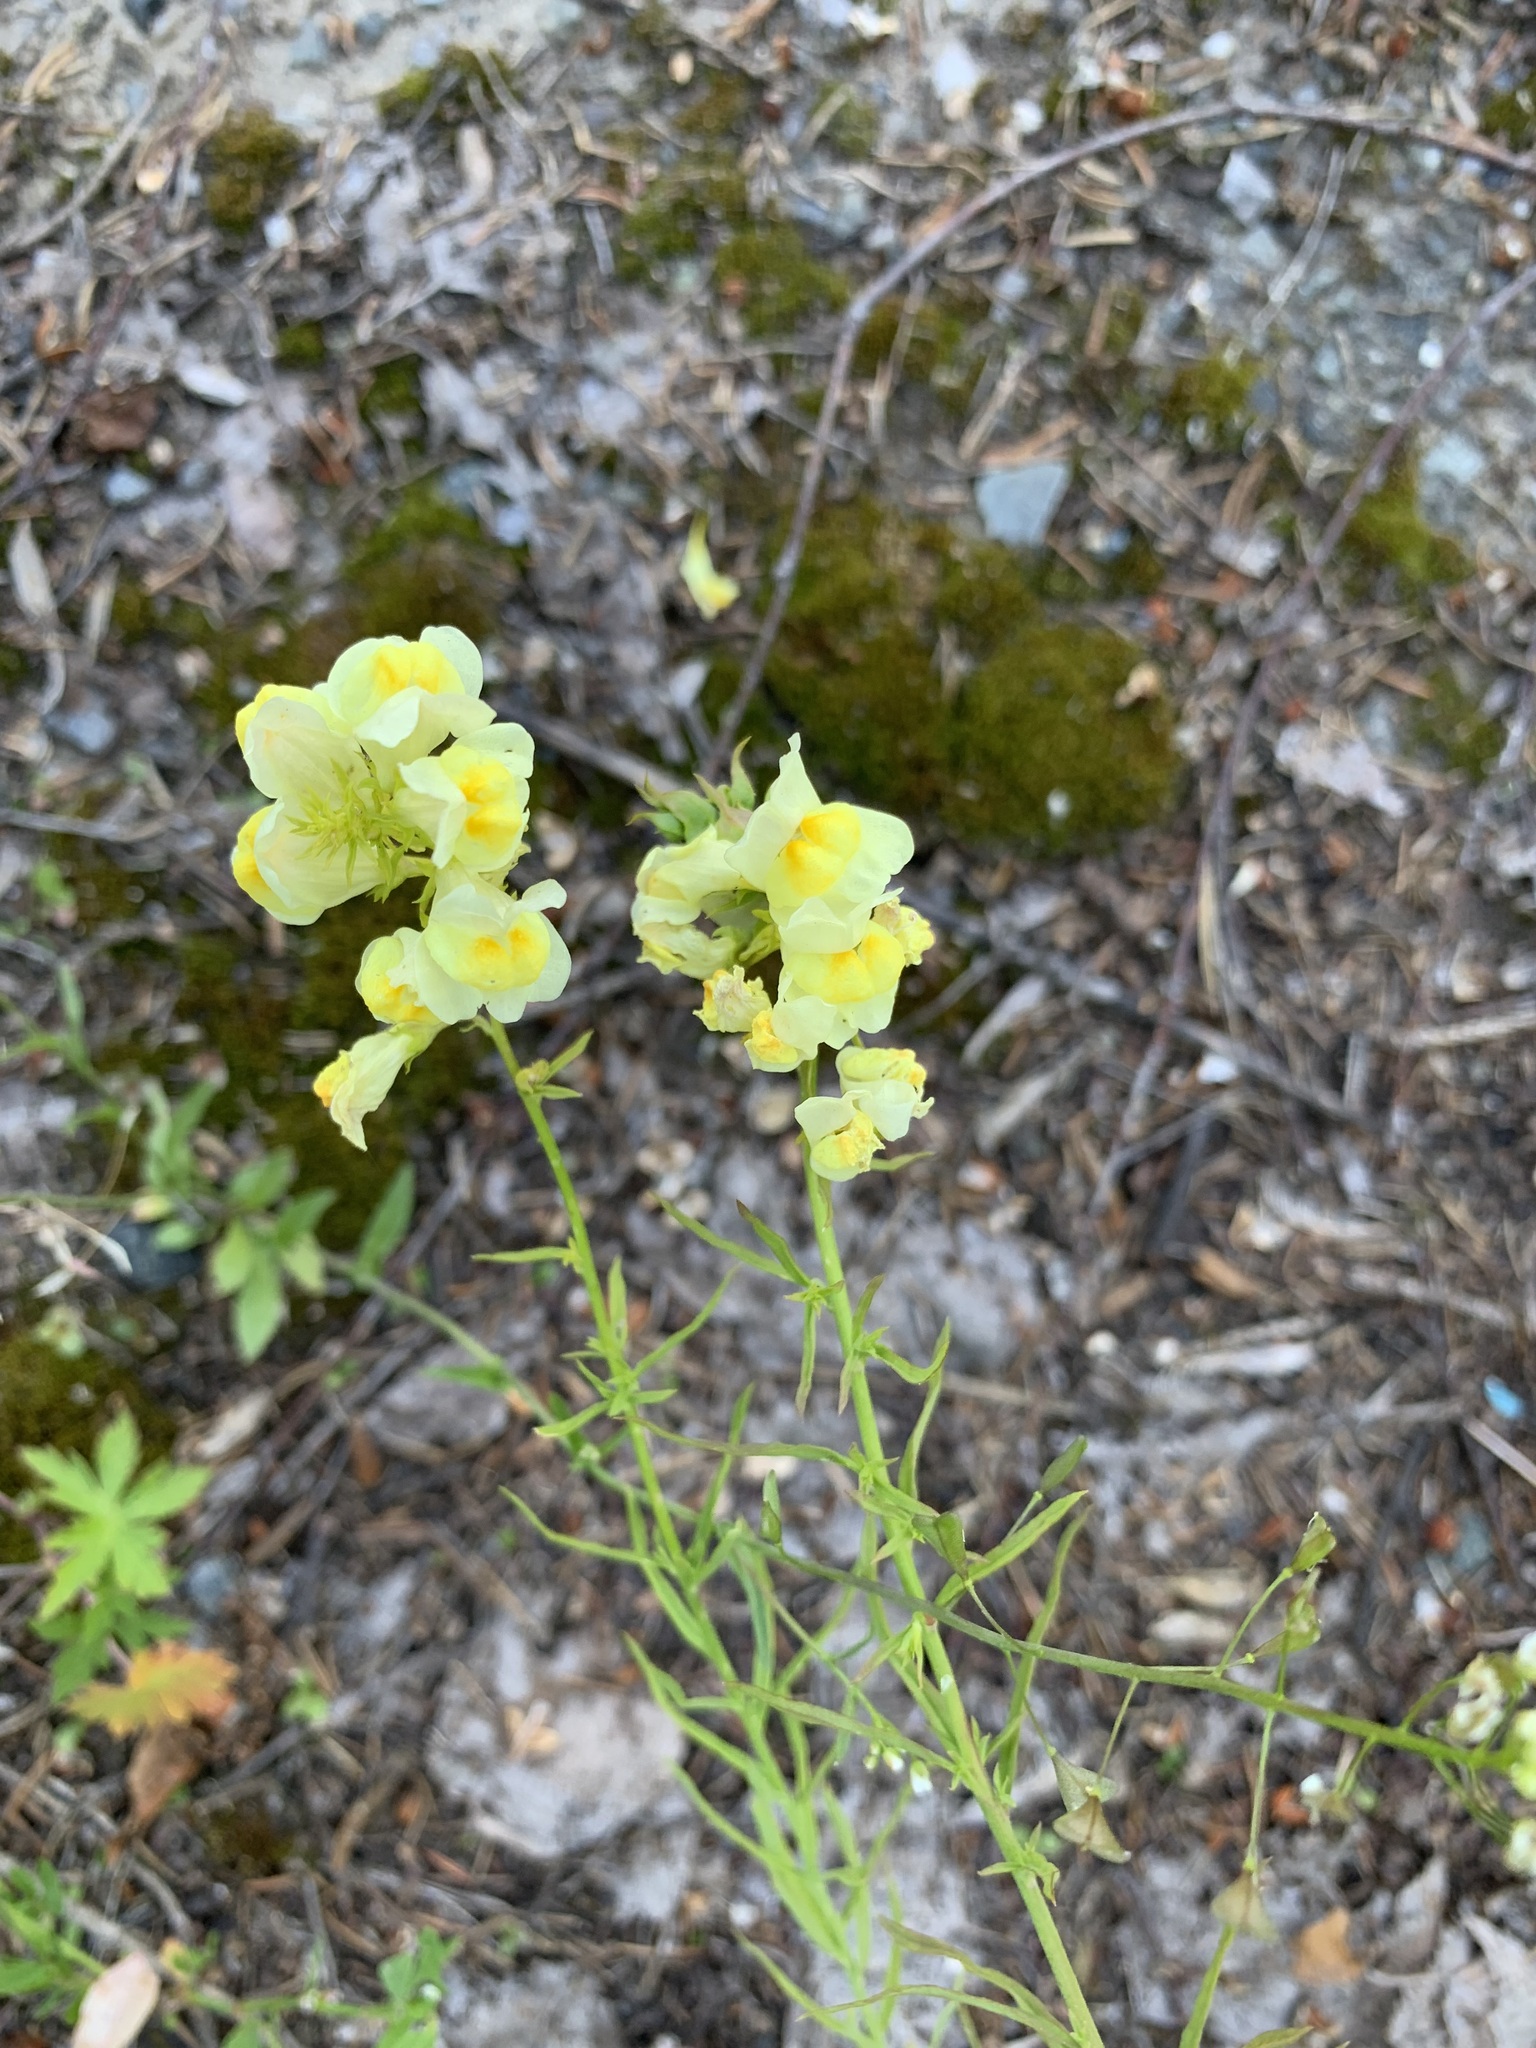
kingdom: Plantae
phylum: Tracheophyta
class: Magnoliopsida
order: Lamiales
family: Plantaginaceae
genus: Linaria
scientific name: Linaria vulgaris
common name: Butter and eggs
